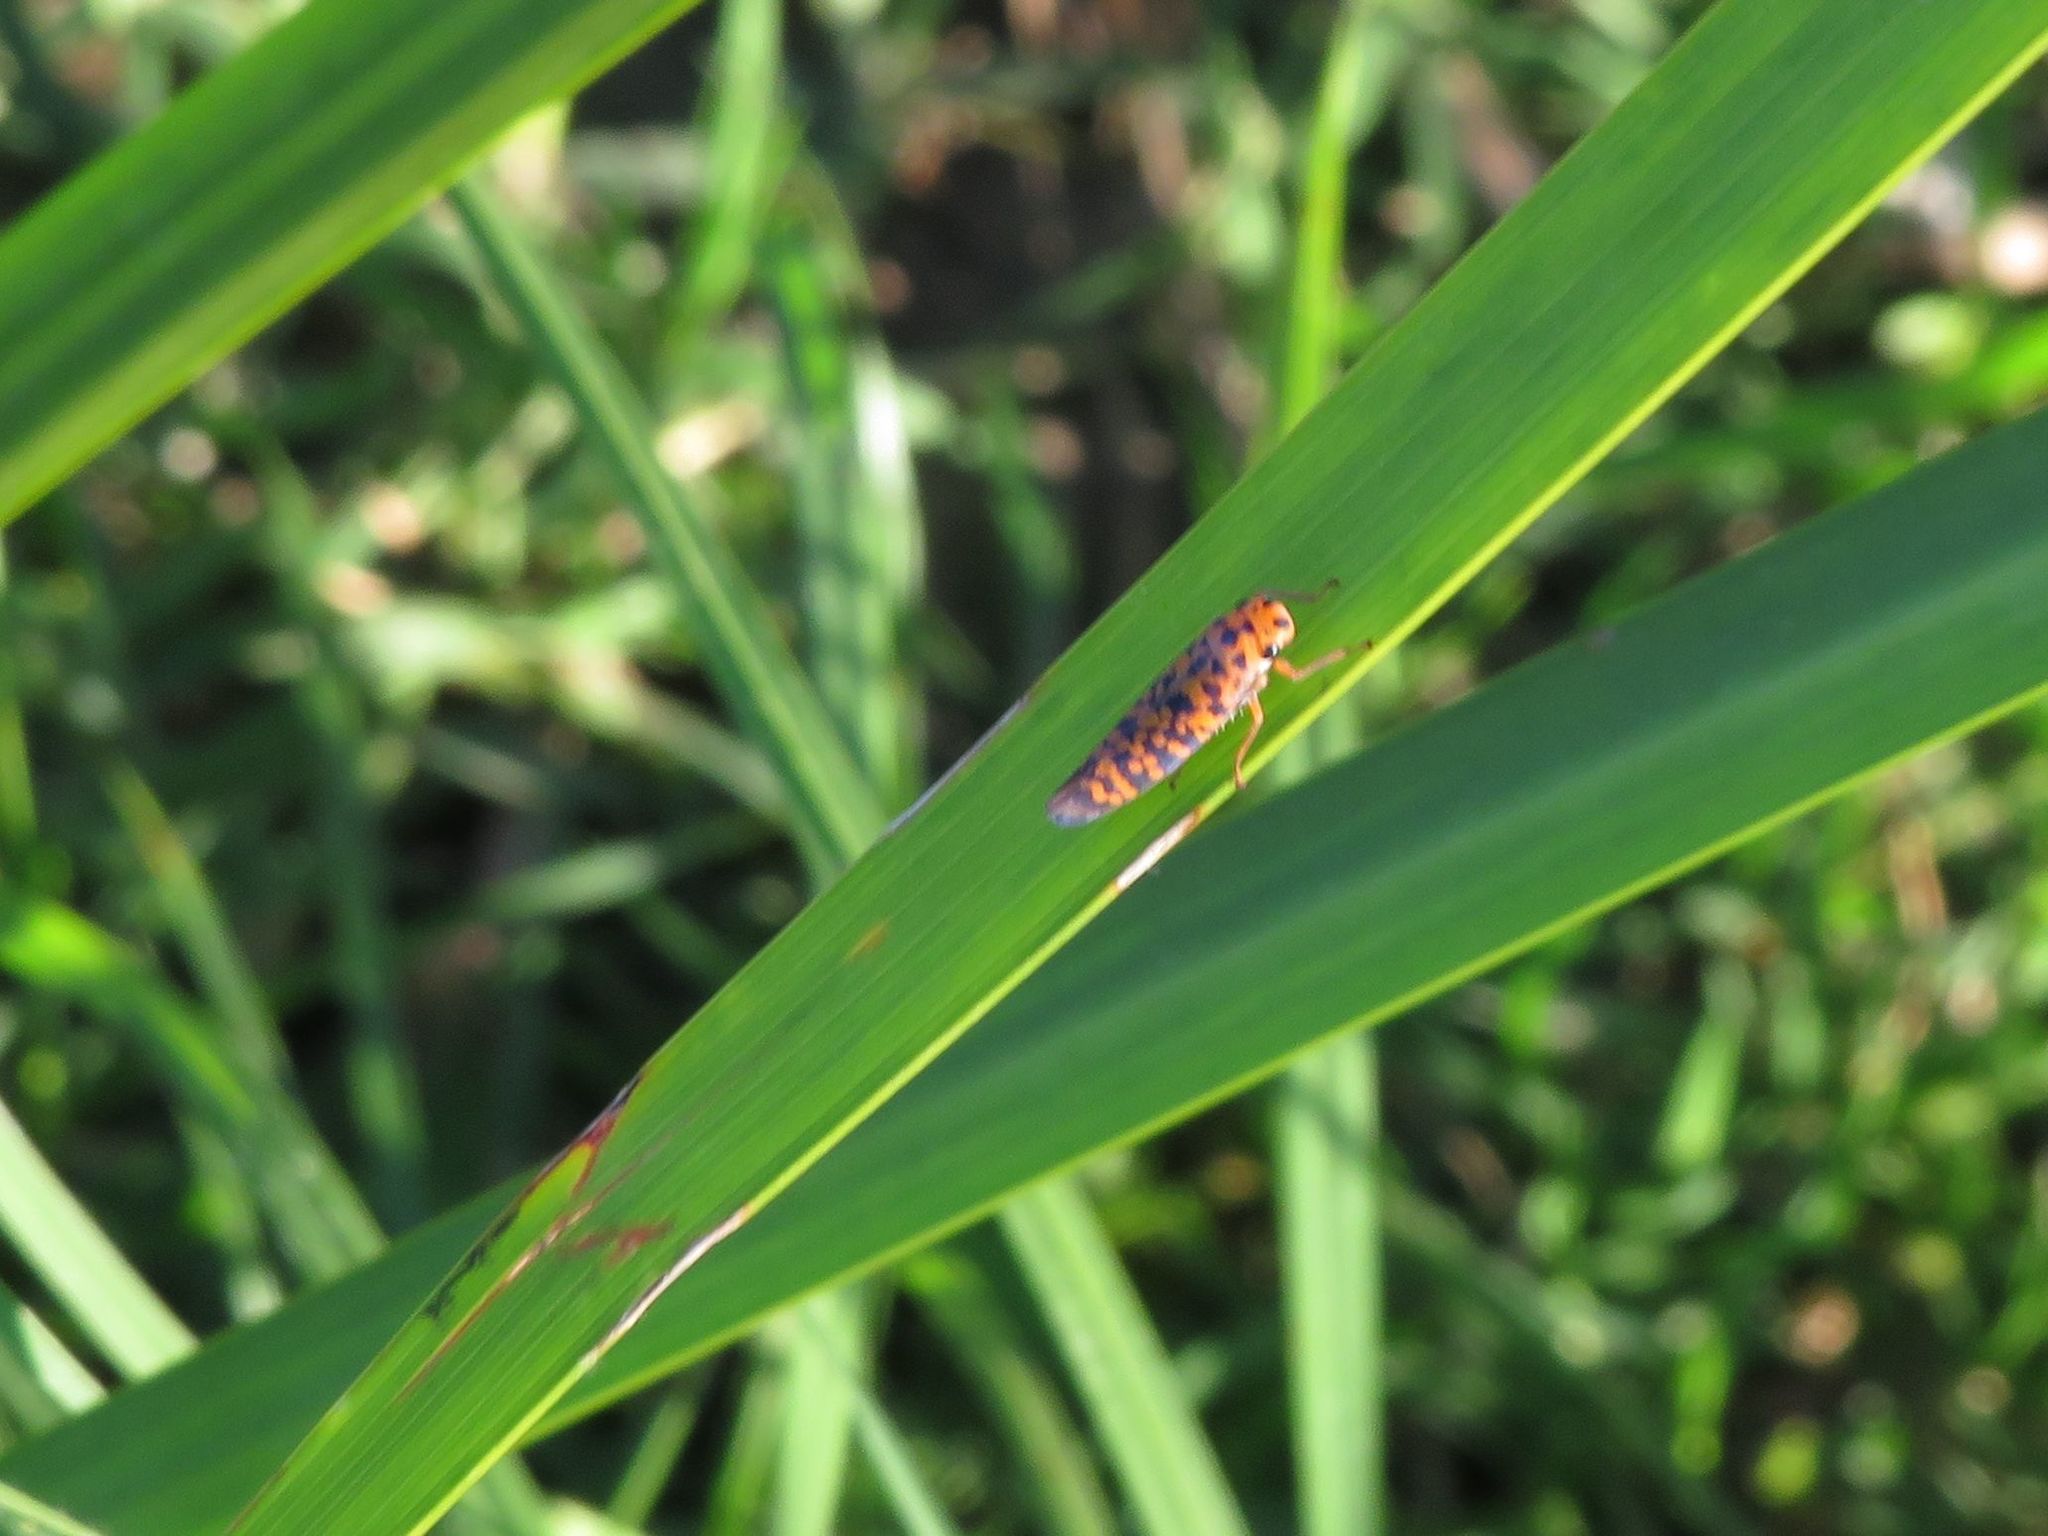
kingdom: Animalia
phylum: Arthropoda
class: Insecta
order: Hemiptera
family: Cicadellidae
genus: Pawiloma
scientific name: Pawiloma victima
